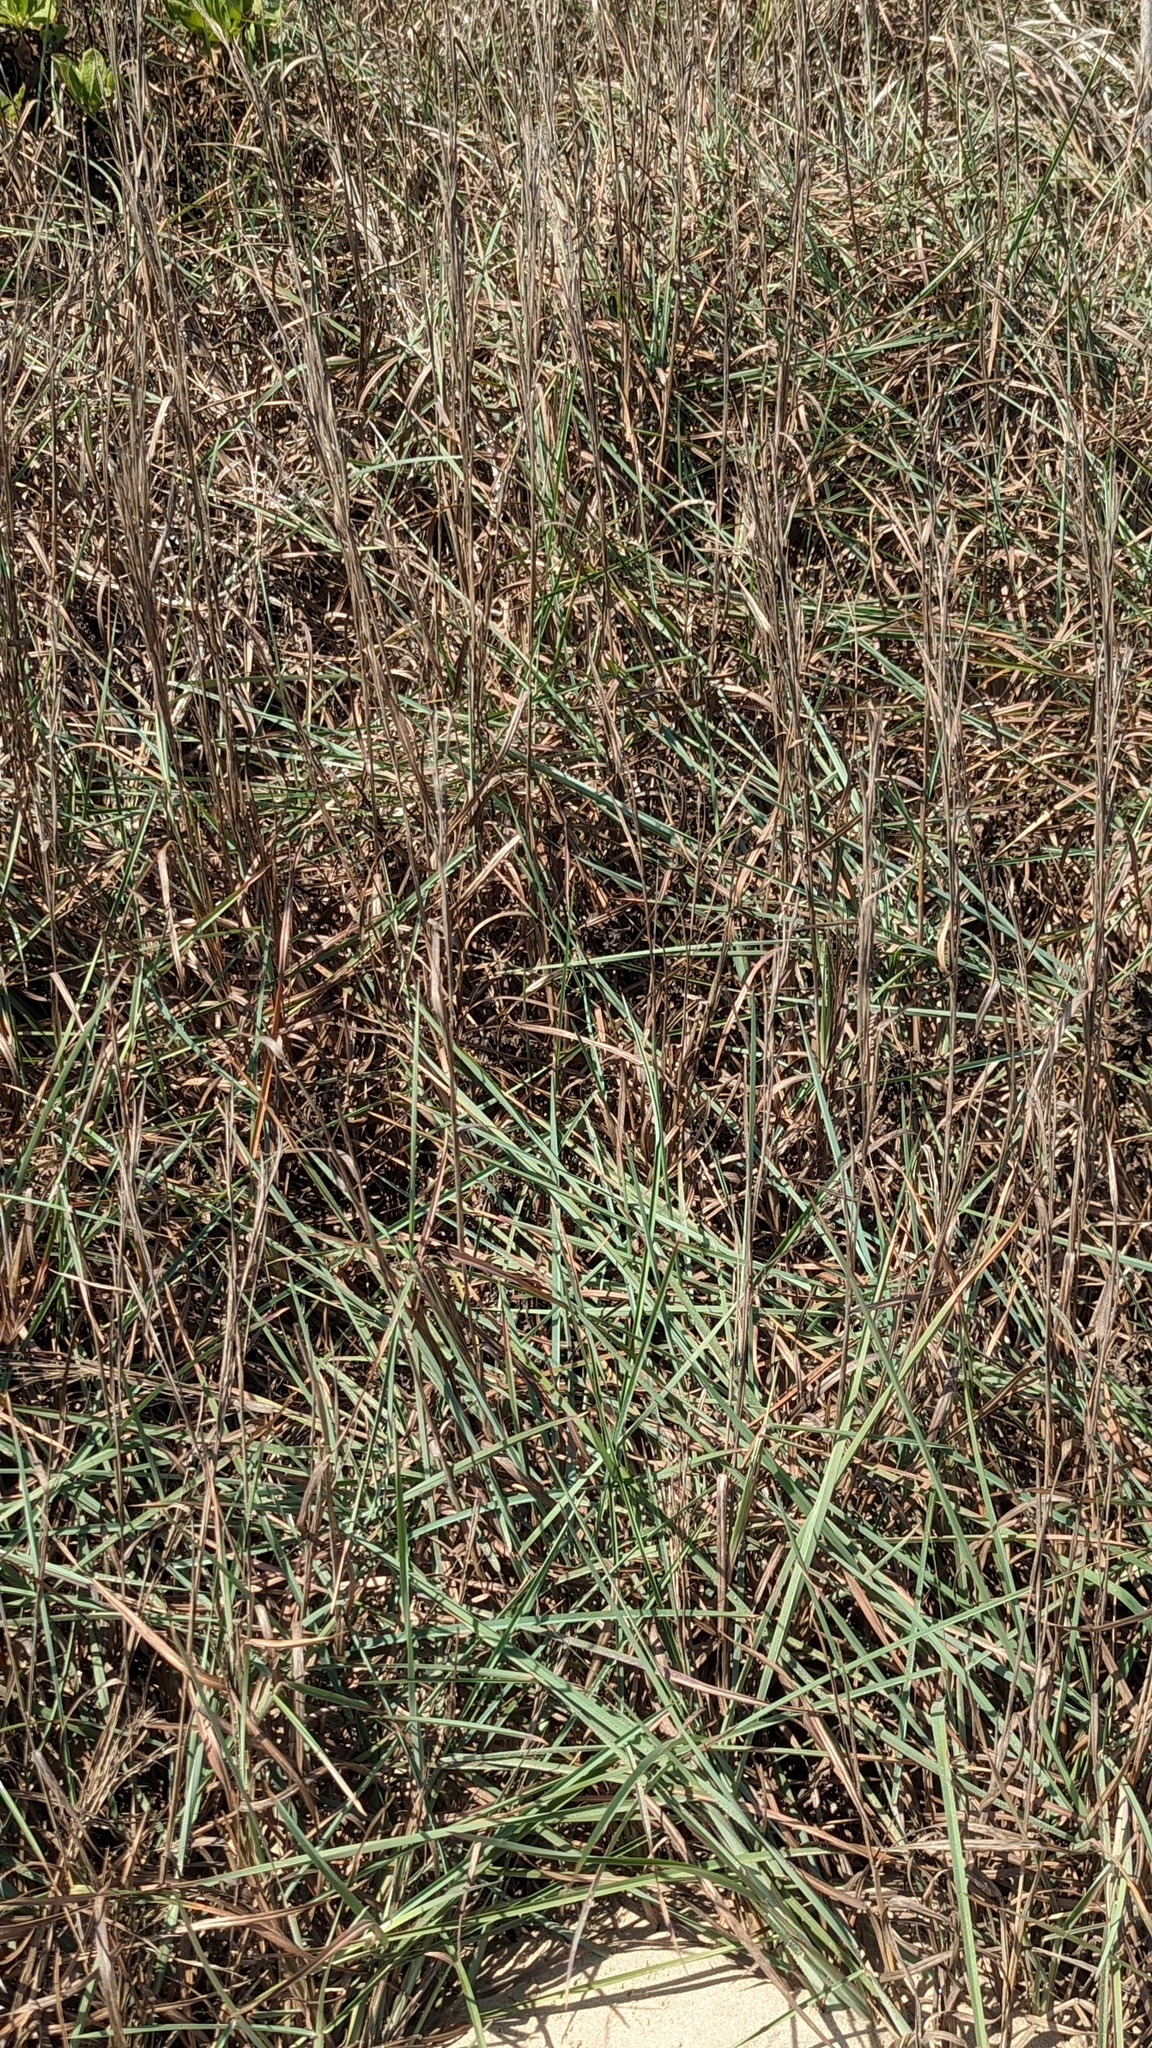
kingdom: Plantae
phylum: Tracheophyta
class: Liliopsida
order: Poales
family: Poaceae
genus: Schizachyrium
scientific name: Schizachyrium scoparium
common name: Little bluestem
